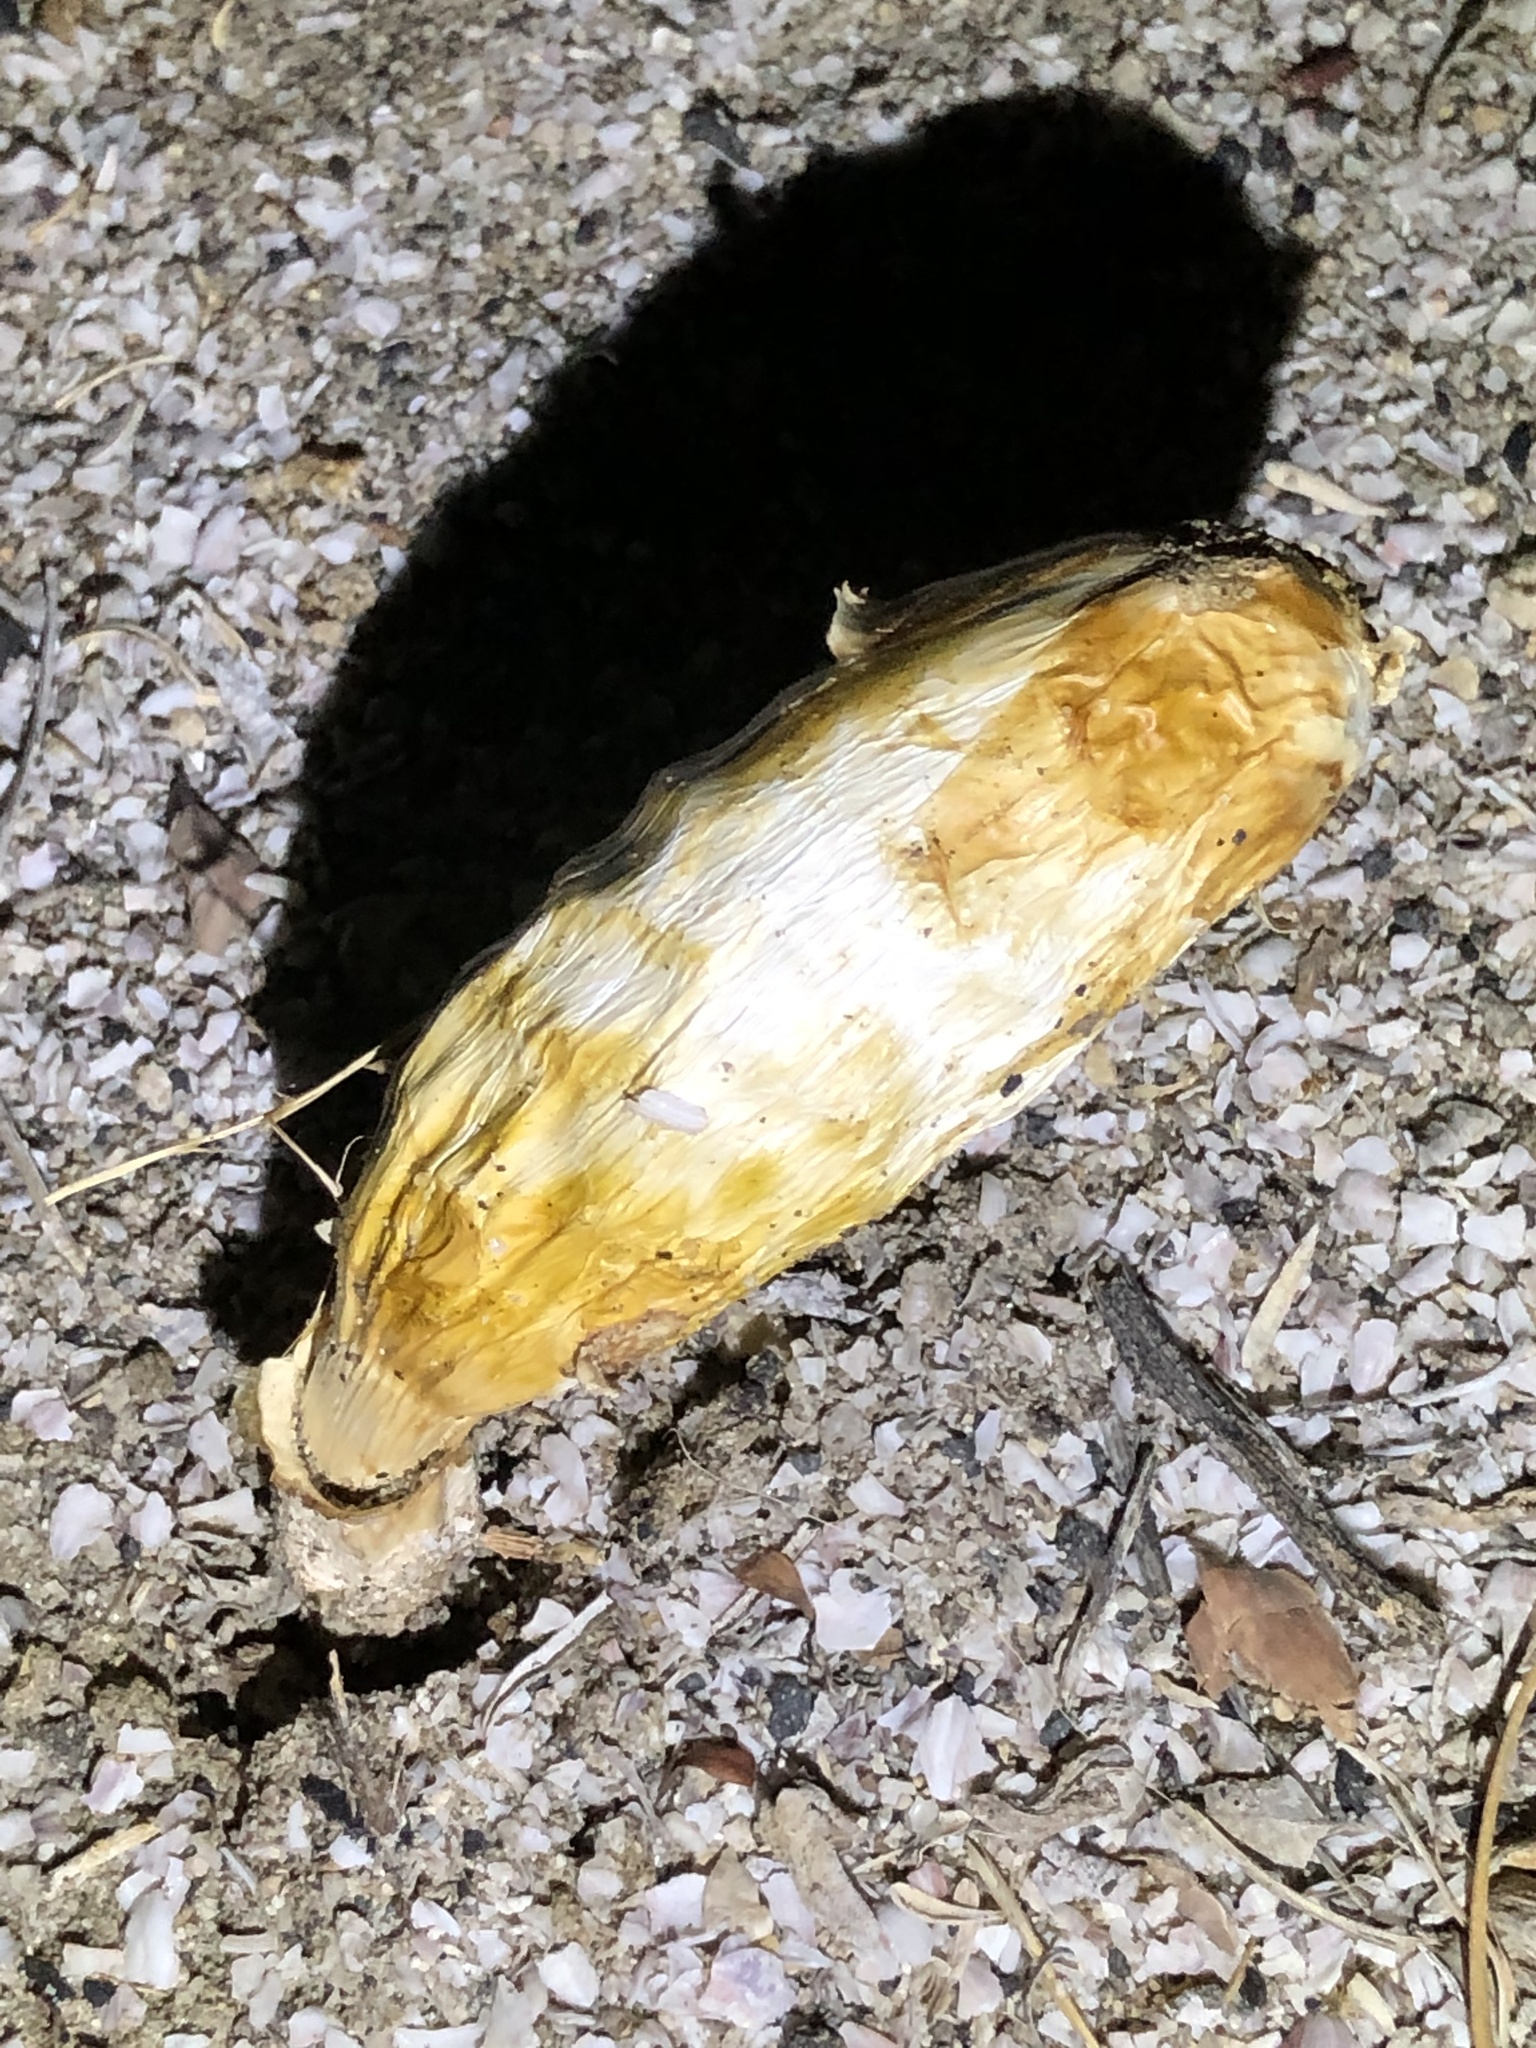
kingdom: Fungi
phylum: Basidiomycota
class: Agaricomycetes
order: Agaricales
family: Agaricaceae
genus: Podaxis
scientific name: Podaxis pistillaris
